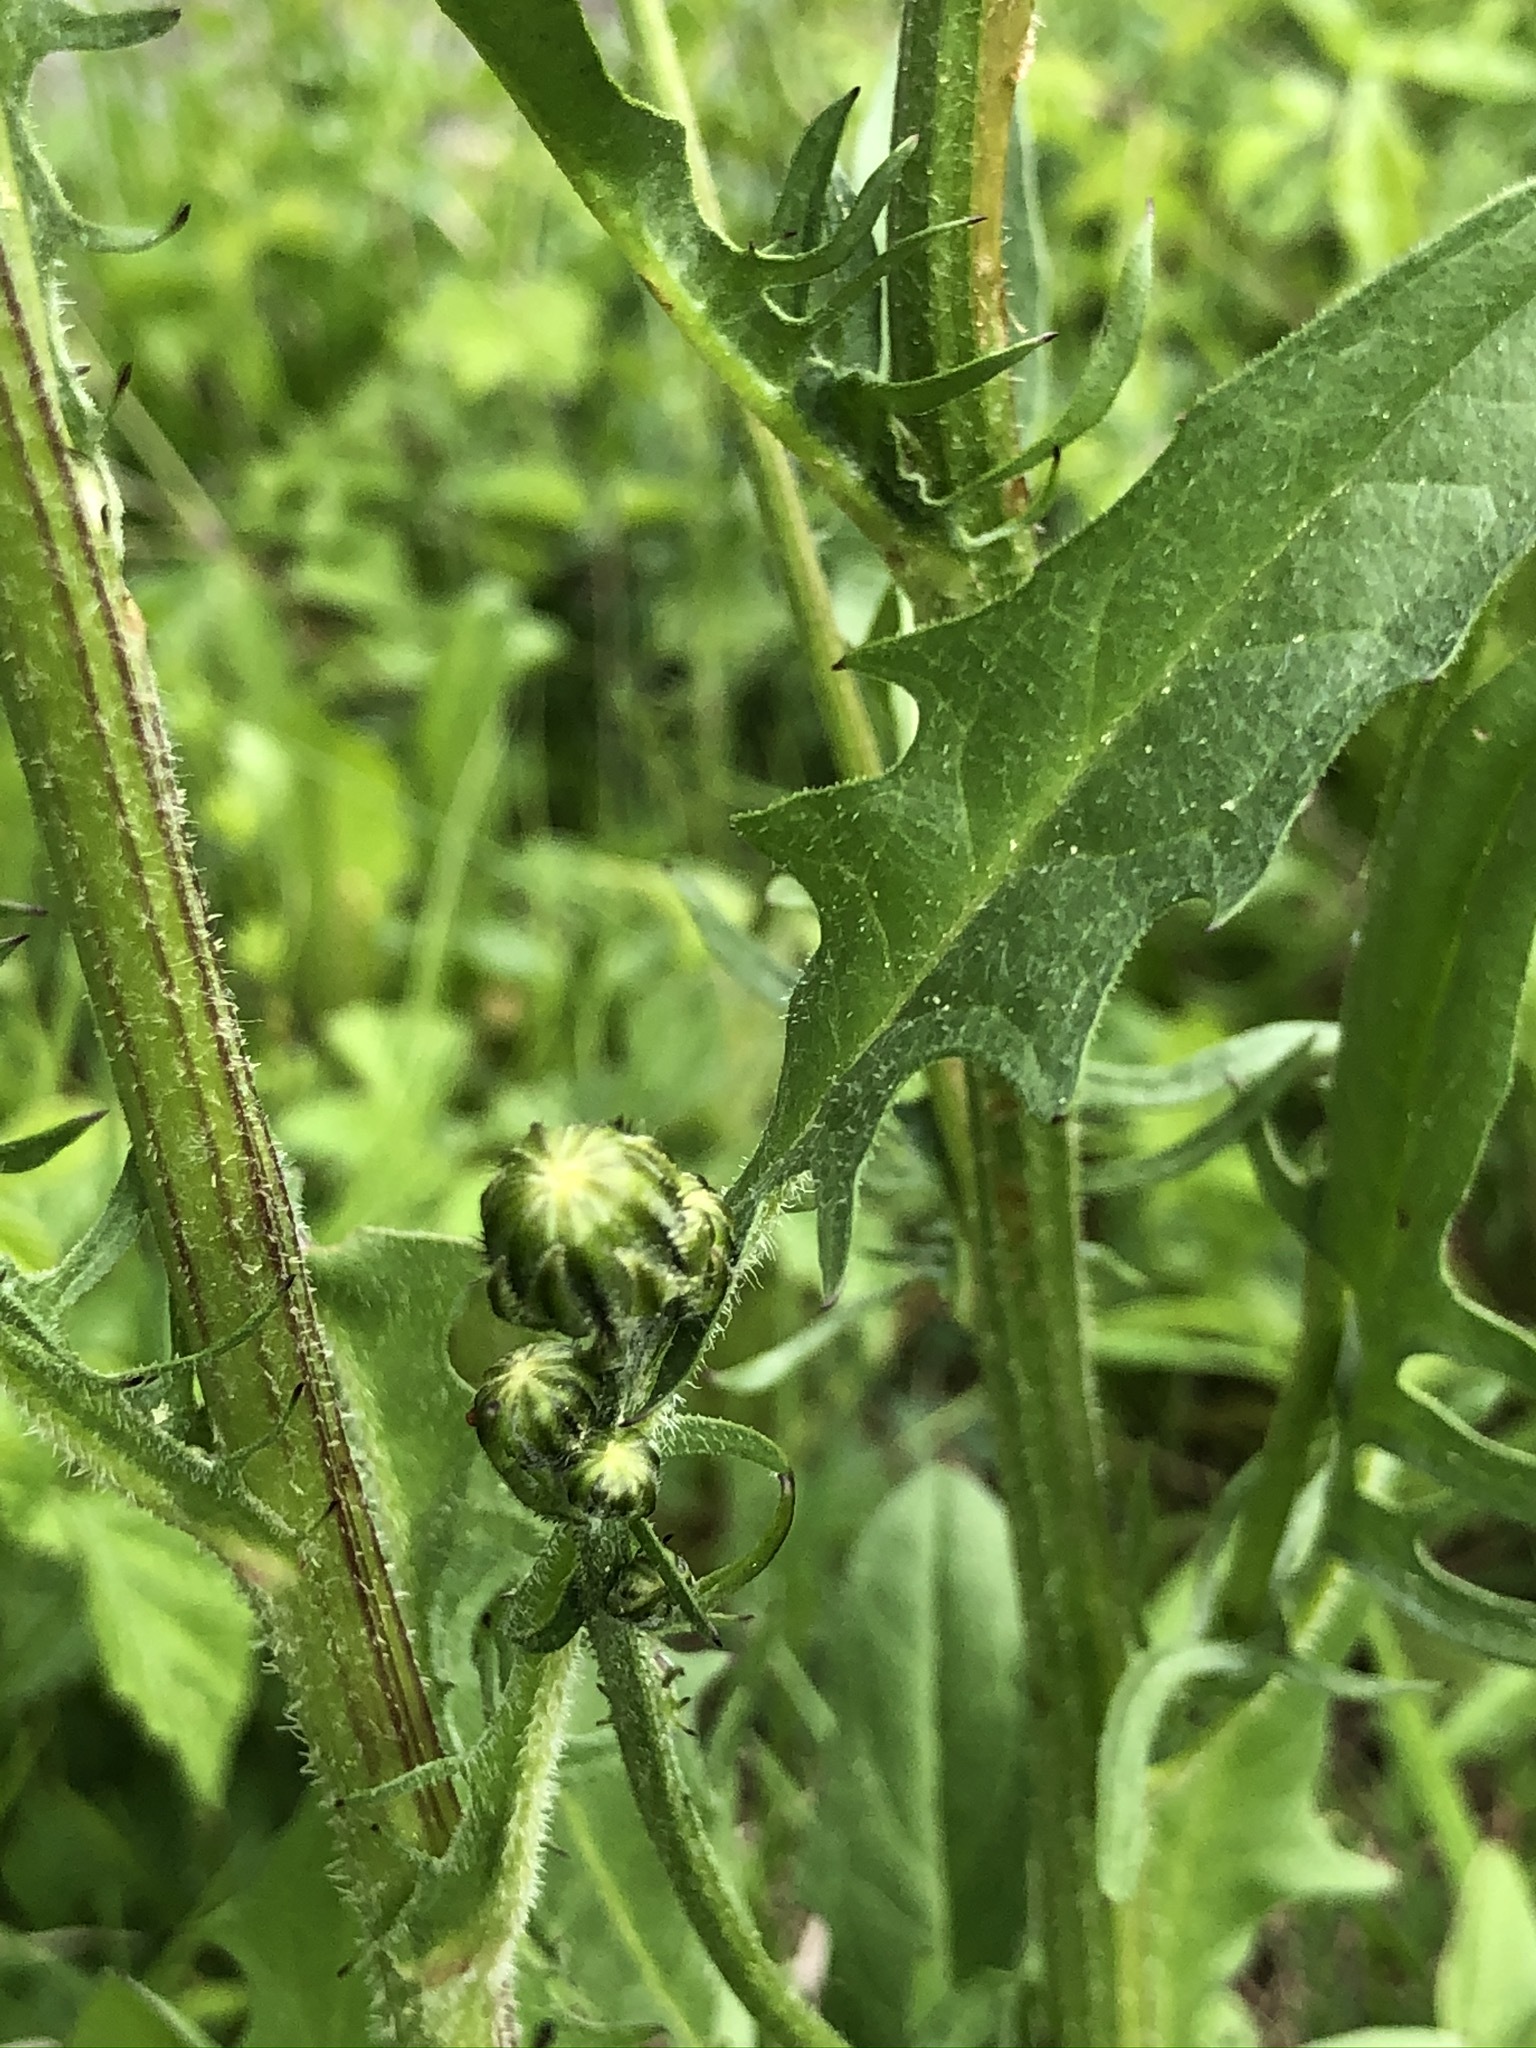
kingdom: Plantae
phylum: Tracheophyta
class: Magnoliopsida
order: Asterales
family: Asteraceae
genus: Crepis
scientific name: Crepis biennis
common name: Rough hawk's-beard
